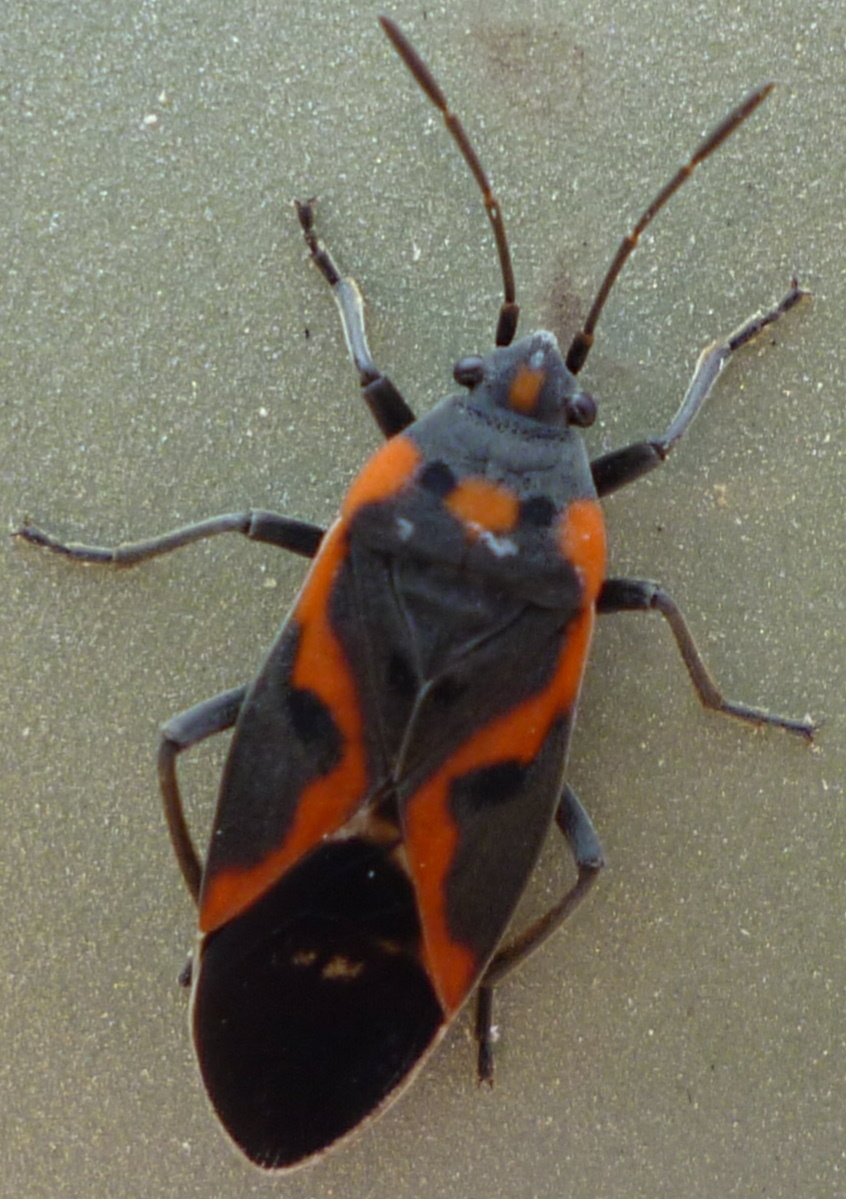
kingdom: Animalia
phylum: Arthropoda
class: Insecta
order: Hemiptera
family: Lygaeidae
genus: Lygaeus
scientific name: Lygaeus kalmii
